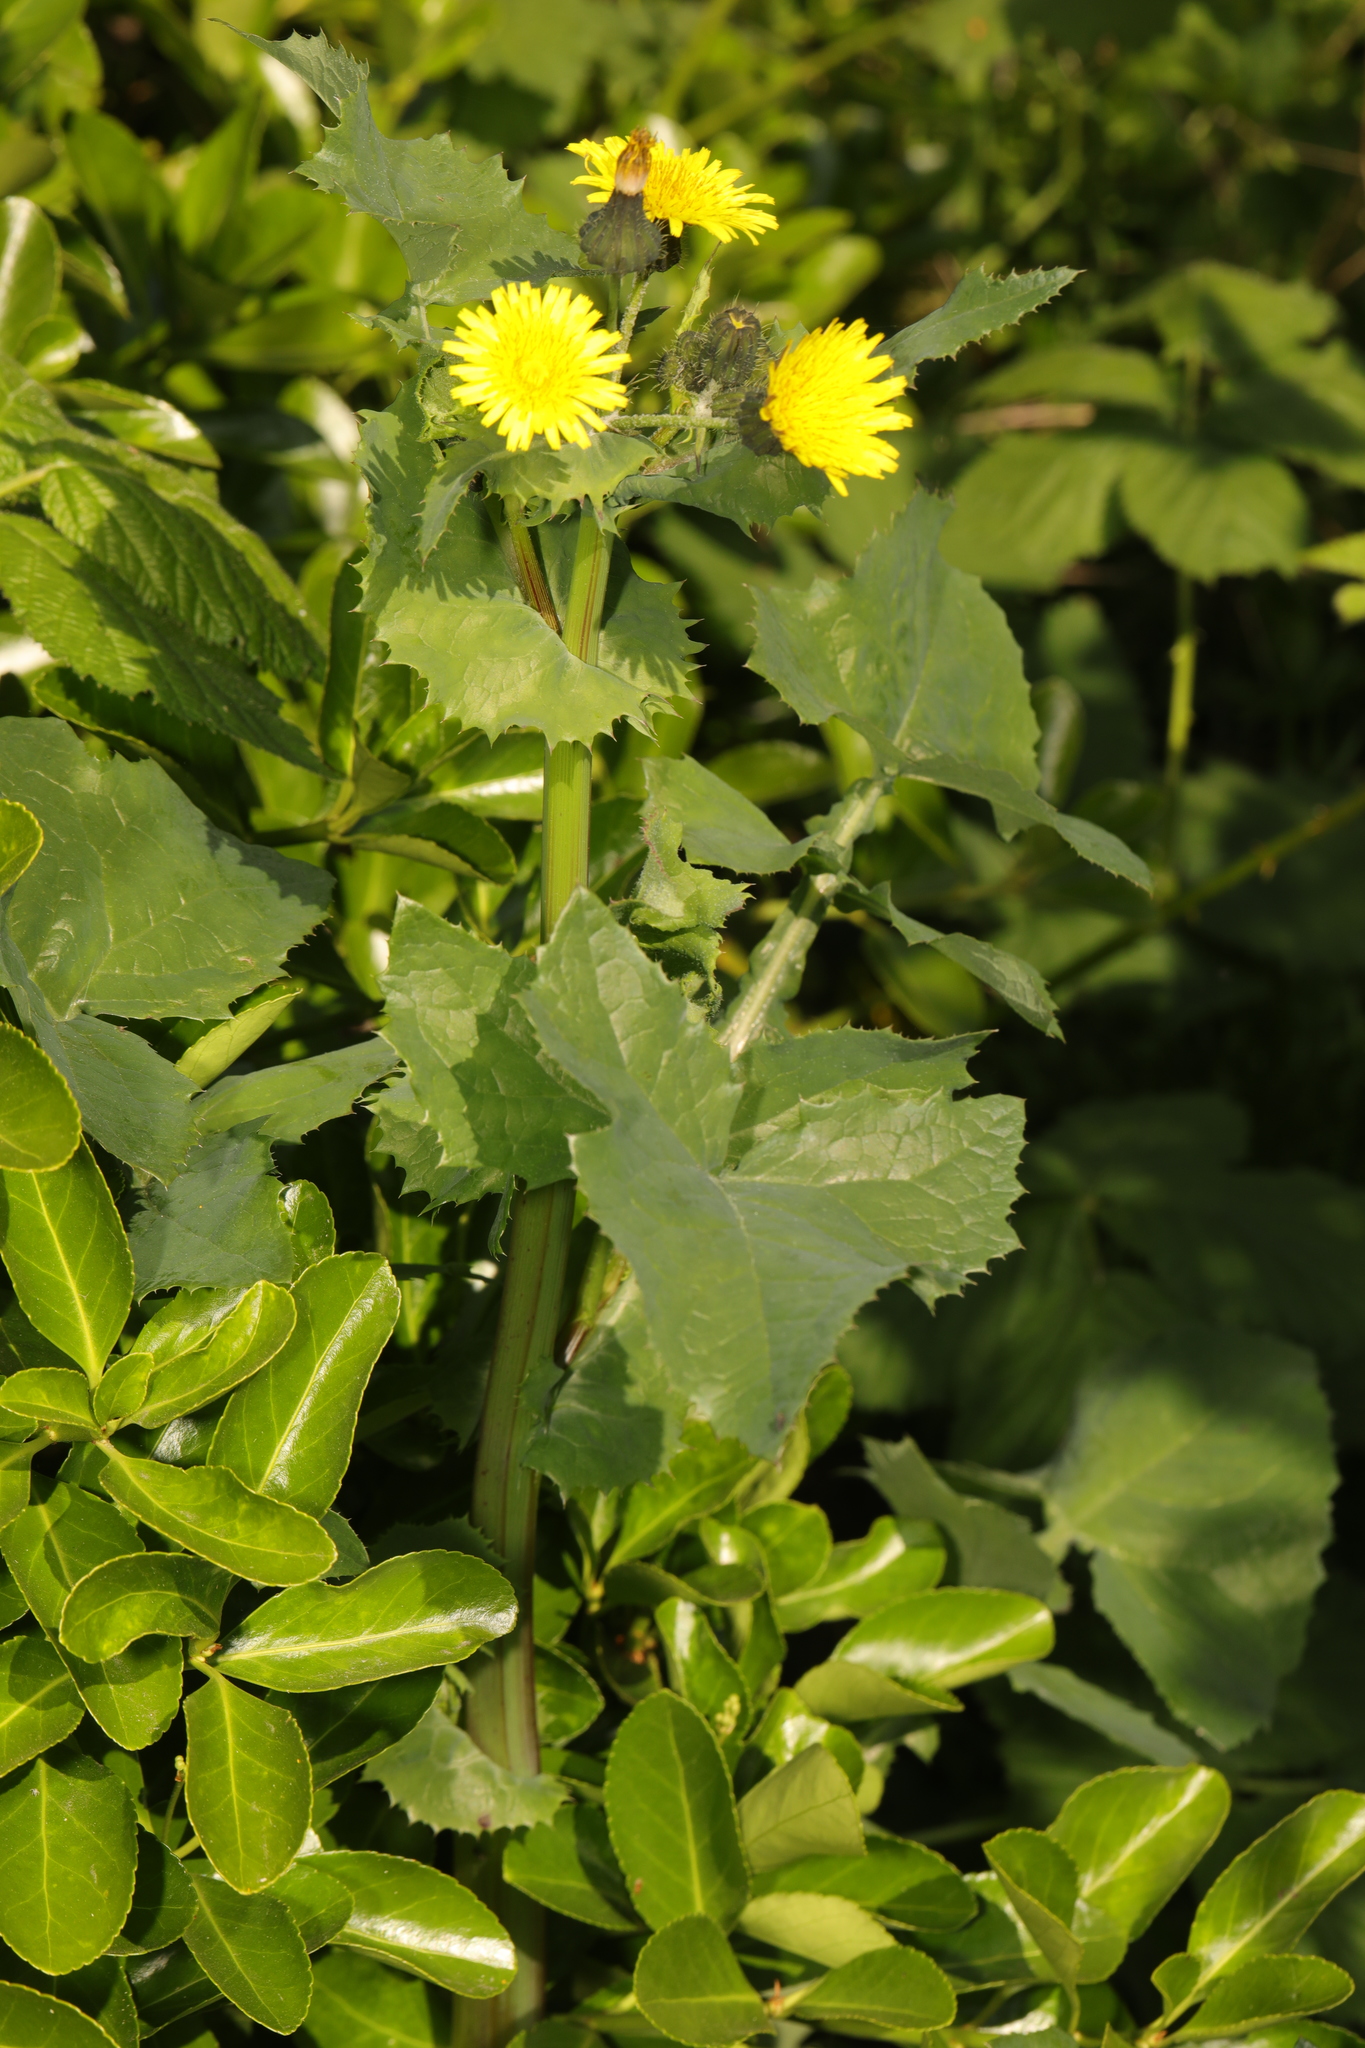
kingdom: Plantae
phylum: Tracheophyta
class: Magnoliopsida
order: Asterales
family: Asteraceae
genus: Sonchus
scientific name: Sonchus oleraceus
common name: Common sowthistle
